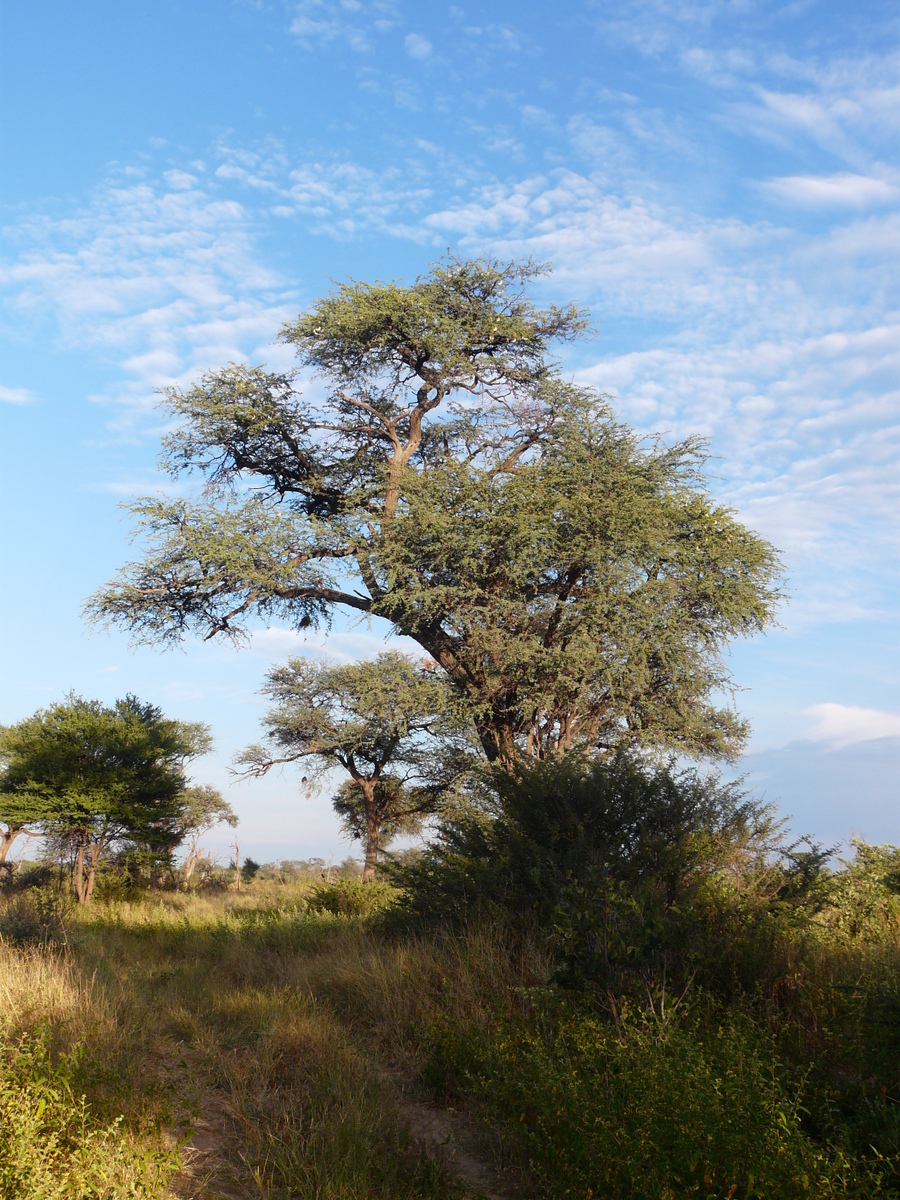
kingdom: Plantae
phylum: Tracheophyta
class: Magnoliopsida
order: Fabales
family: Fabaceae
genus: Vachellia
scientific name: Vachellia erioloba
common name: Camel thorn
